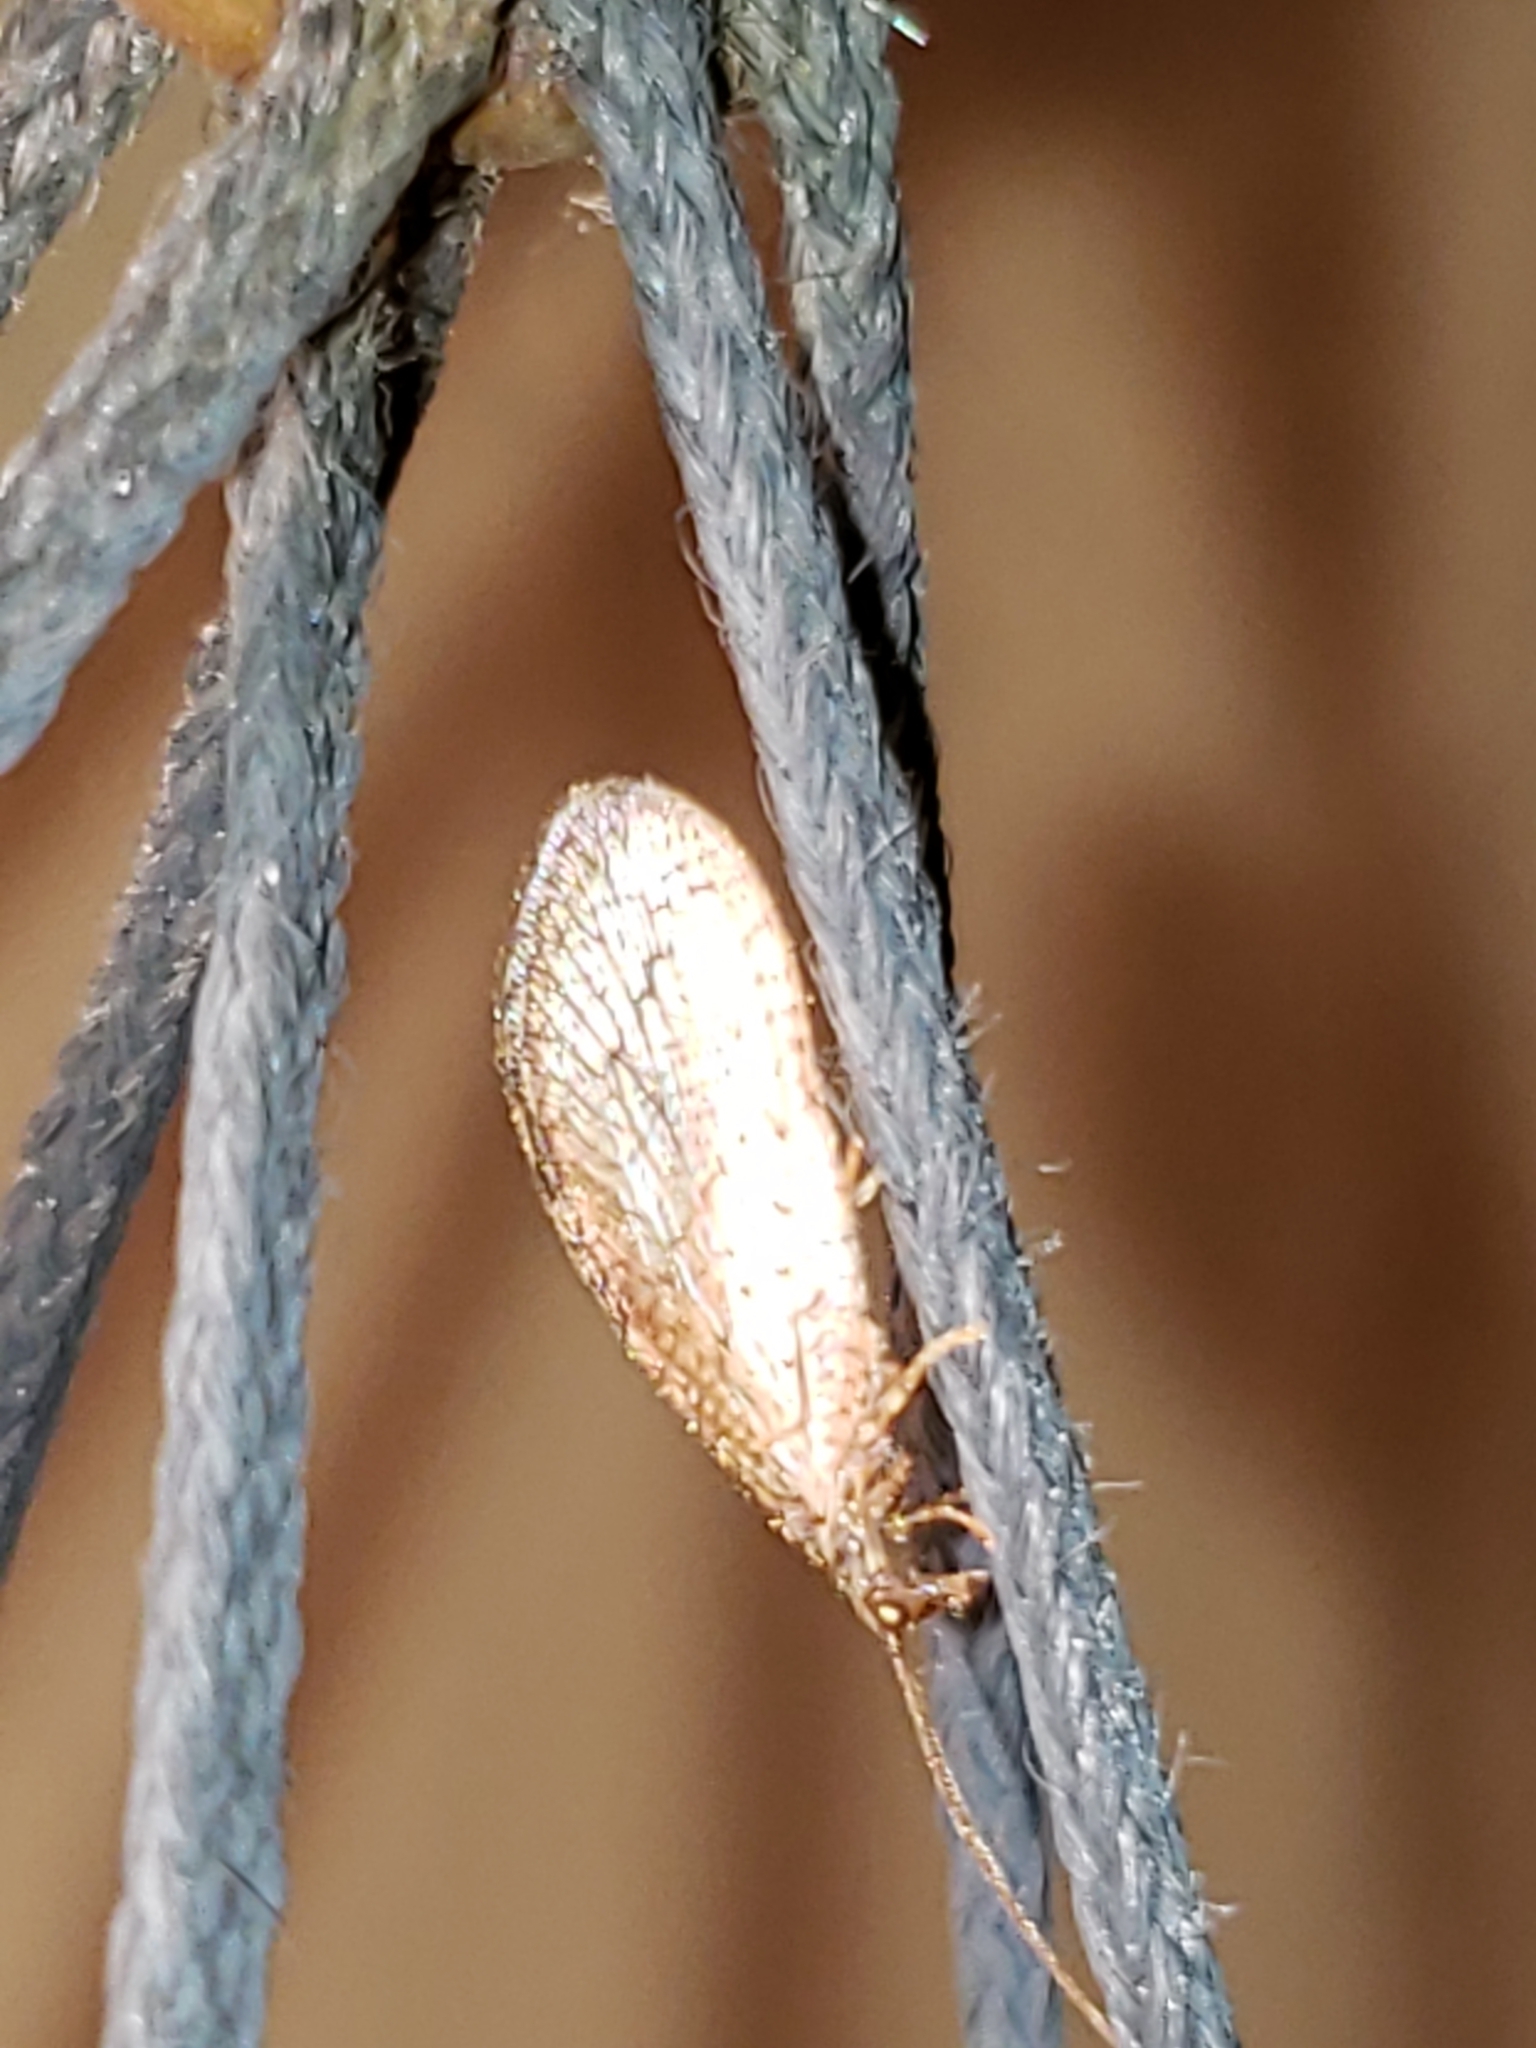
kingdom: Animalia
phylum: Arthropoda
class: Insecta
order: Neuroptera
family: Hemerobiidae
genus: Micromus
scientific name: Micromus posticus
